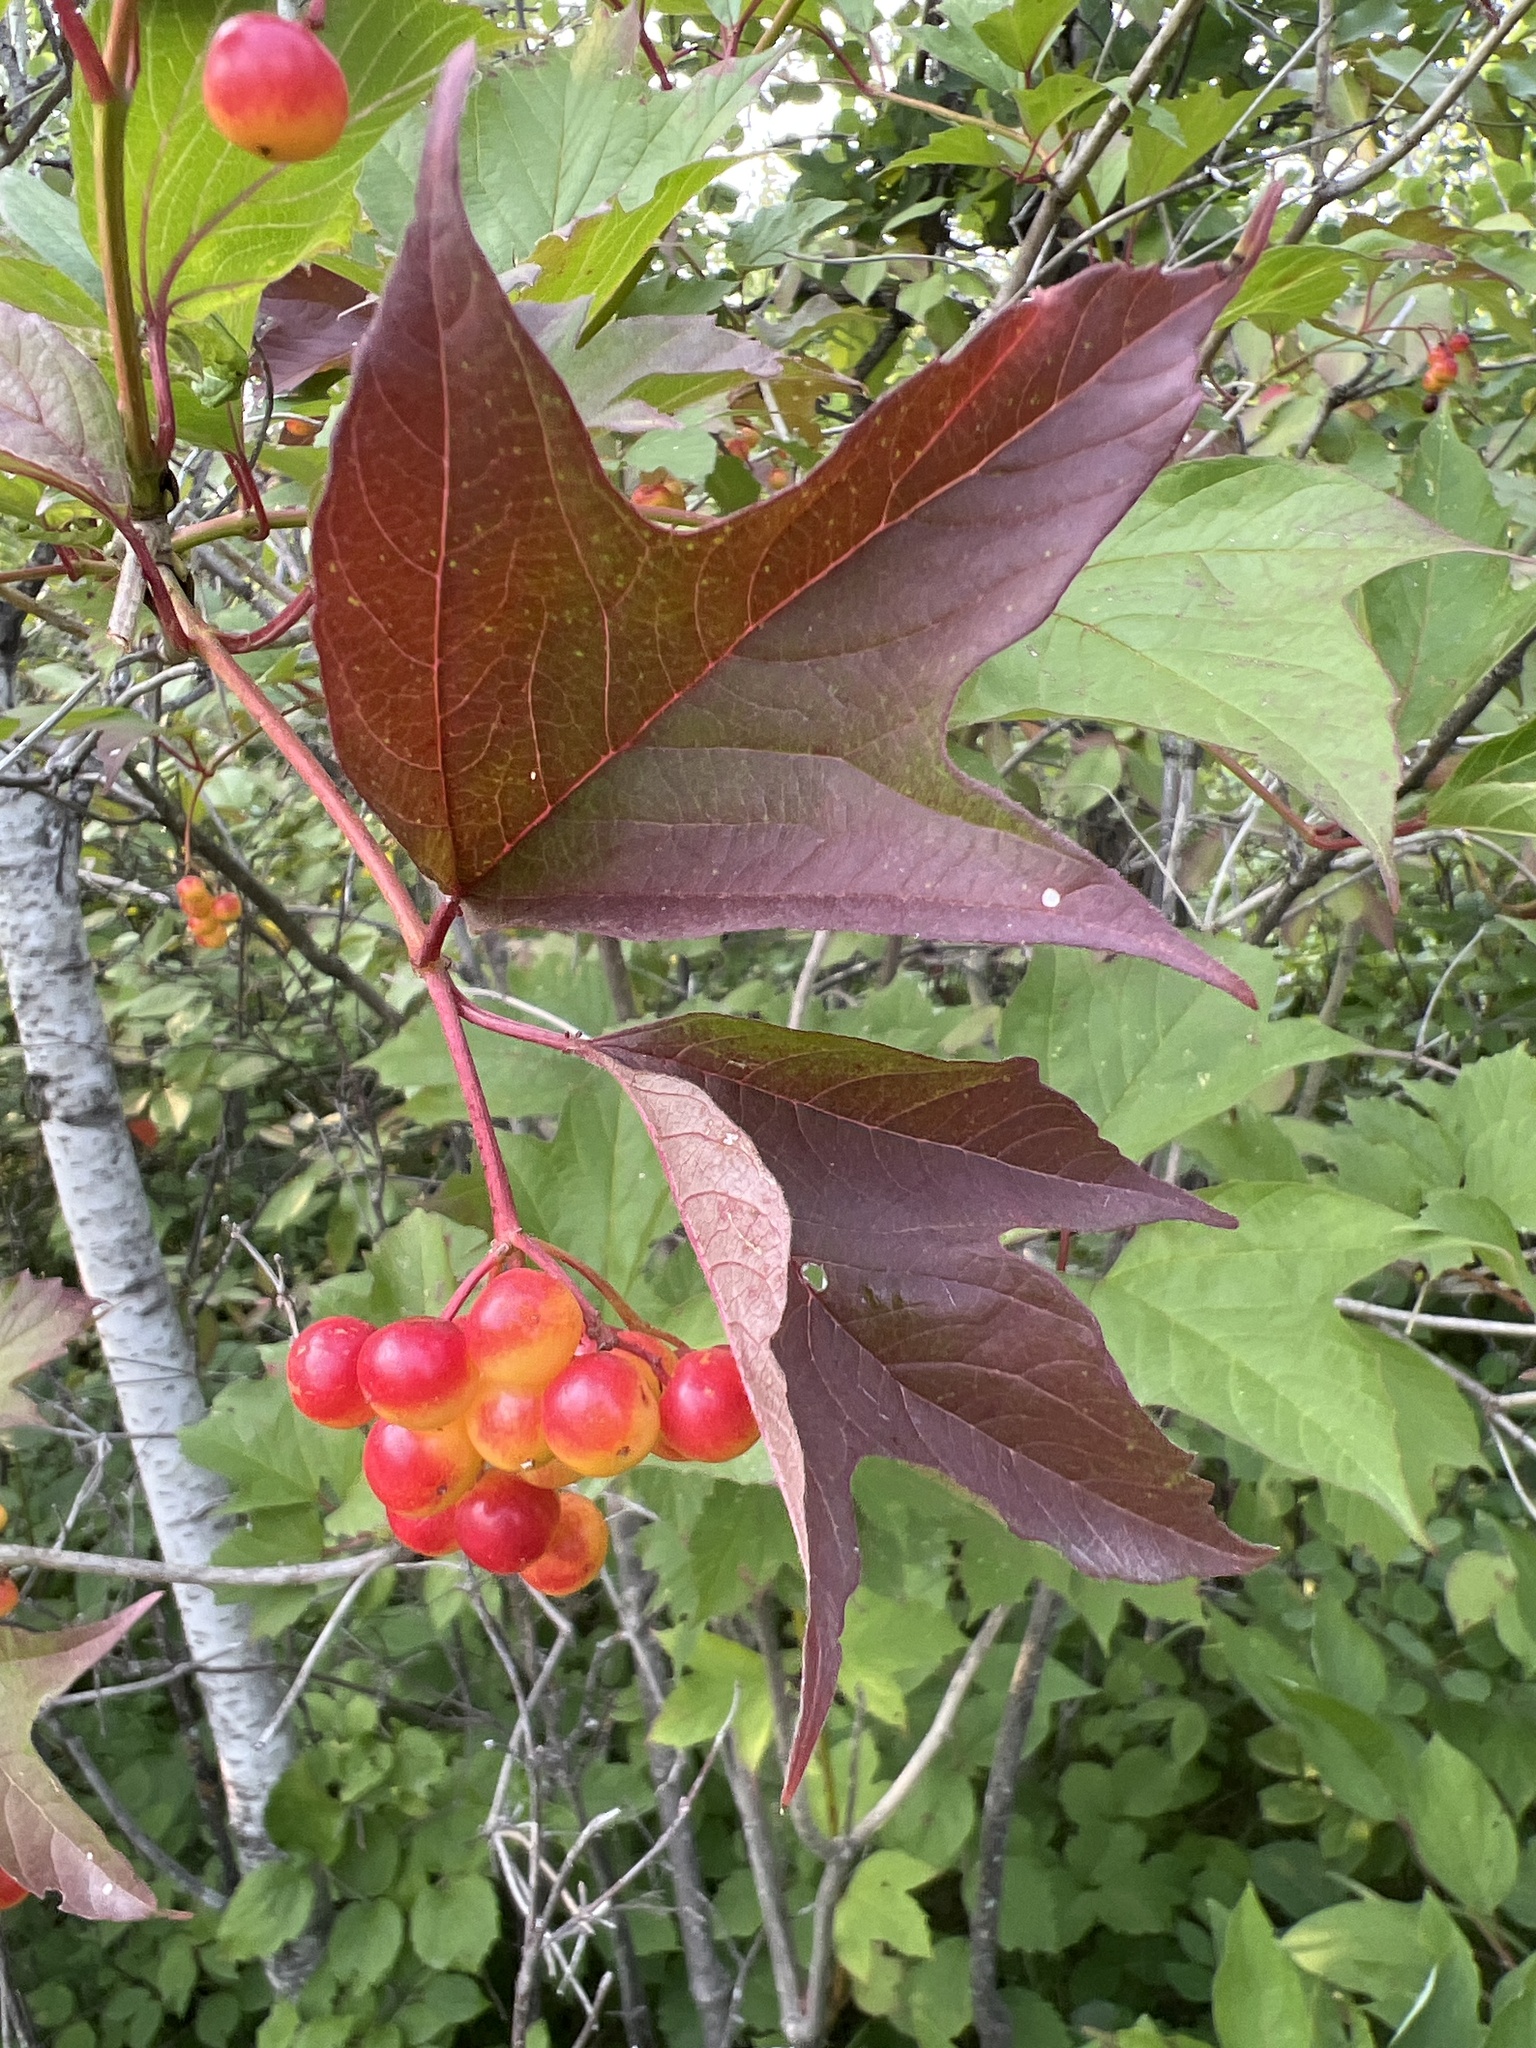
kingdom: Plantae
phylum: Tracheophyta
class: Magnoliopsida
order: Dipsacales
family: Viburnaceae
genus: Viburnum
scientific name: Viburnum opulus
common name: Guelder-rose
